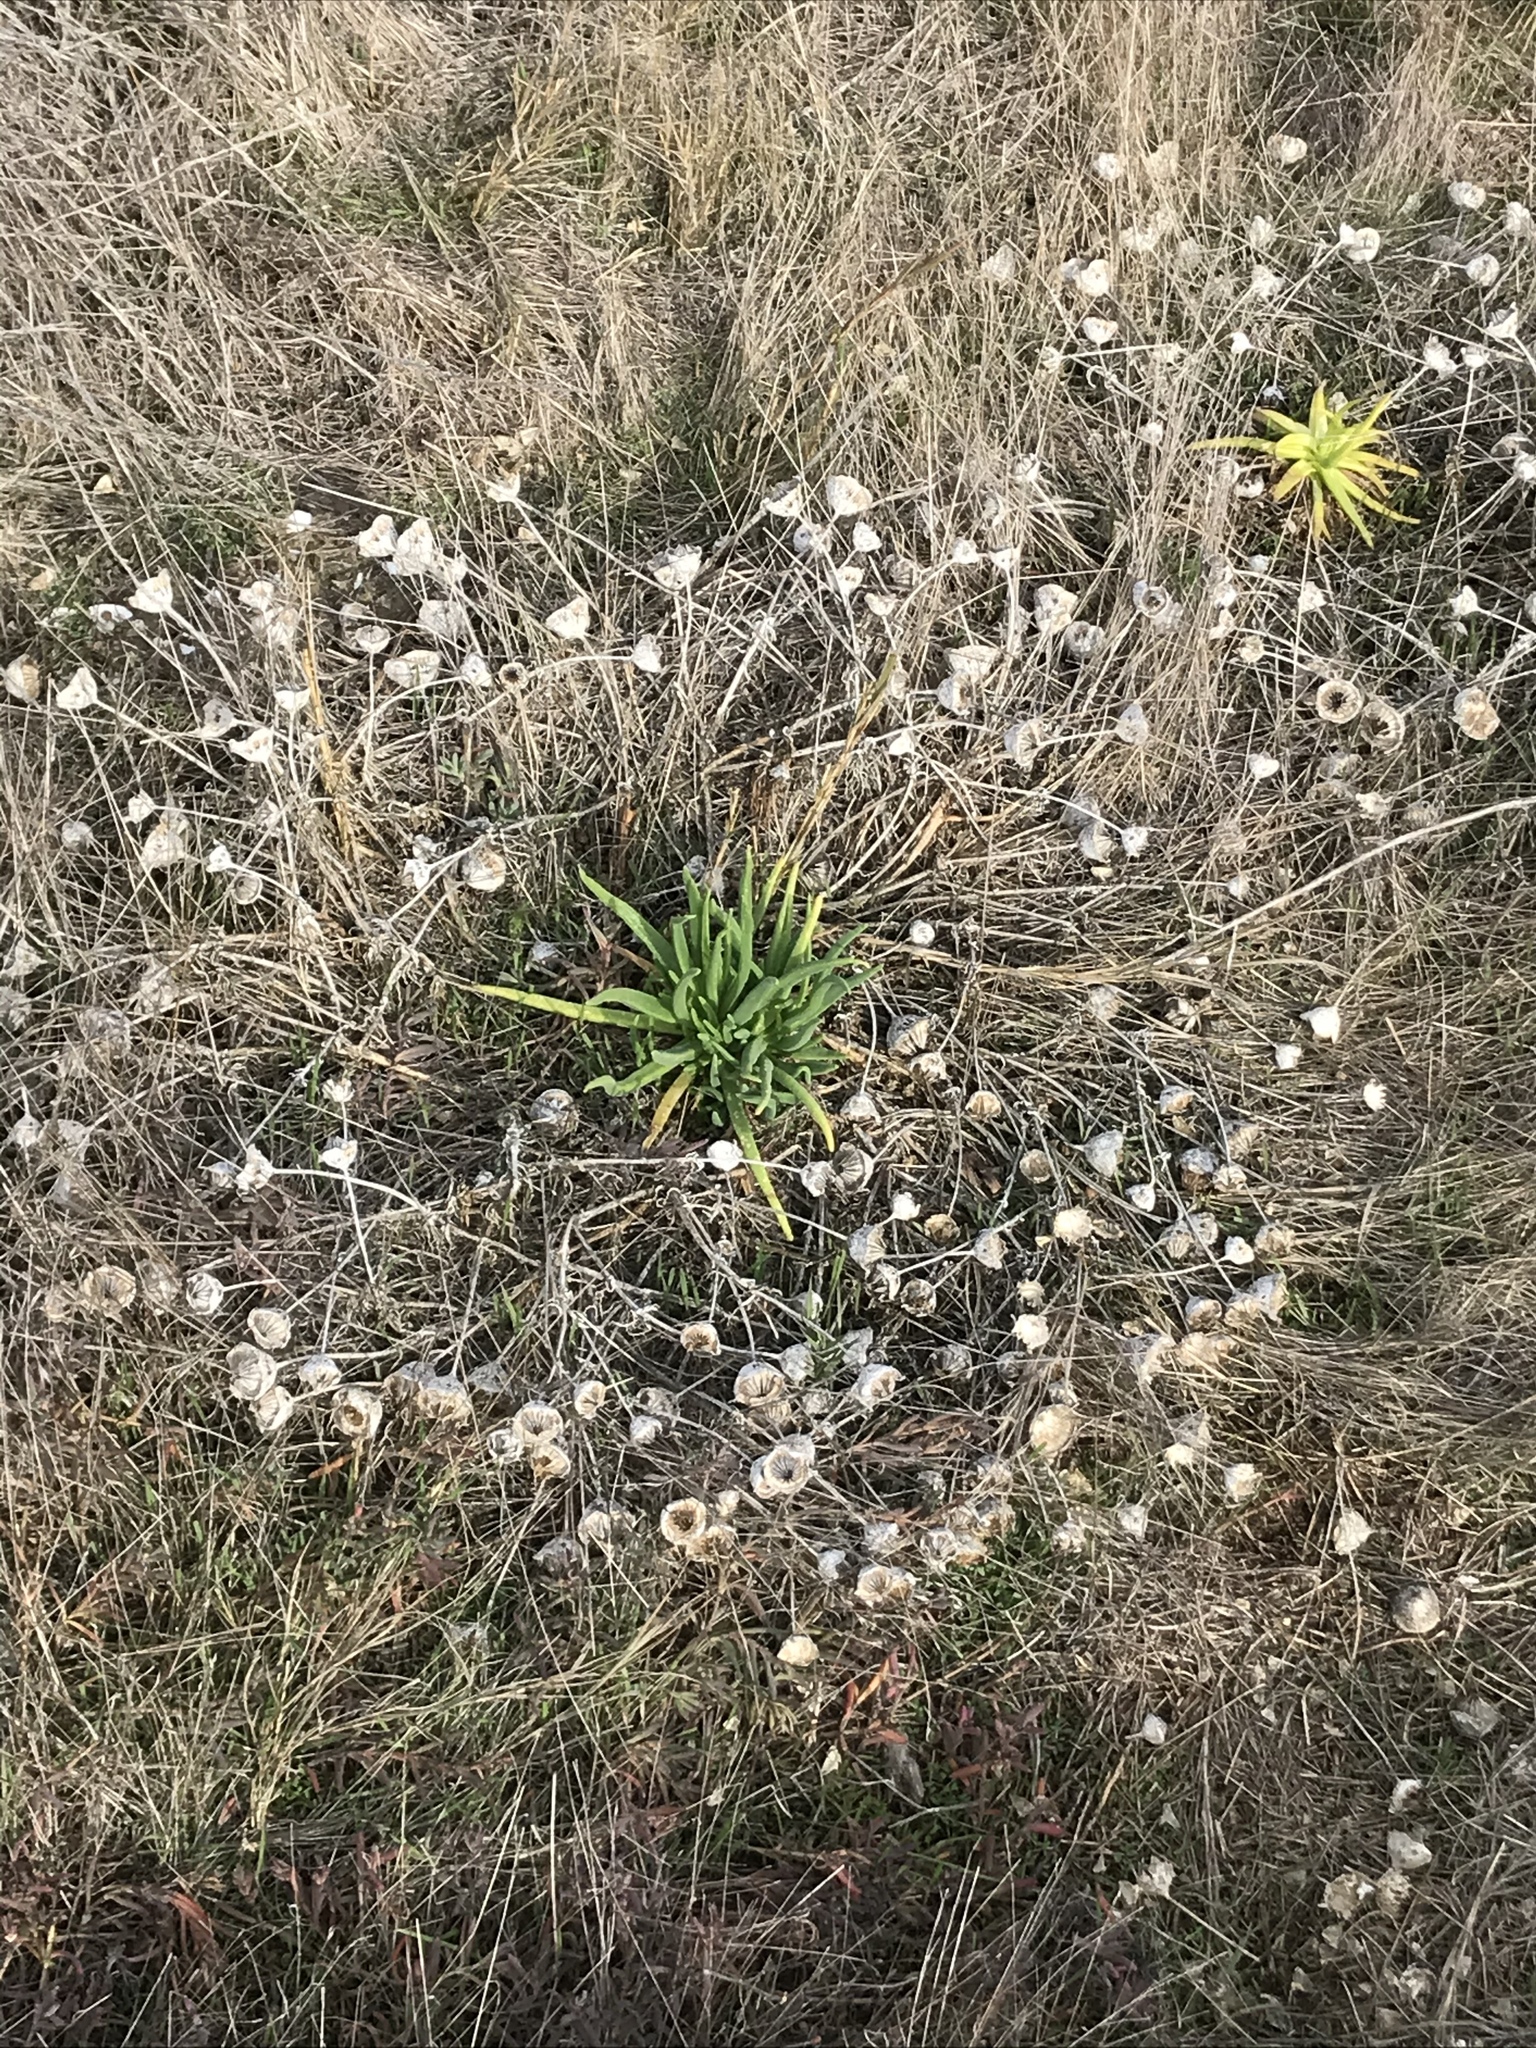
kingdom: Plantae
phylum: Tracheophyta
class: Magnoliopsida
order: Caryophyllales
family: Aizoaceae
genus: Conicosia
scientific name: Conicosia pugioniformis
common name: Narrow-leaved iceplant
